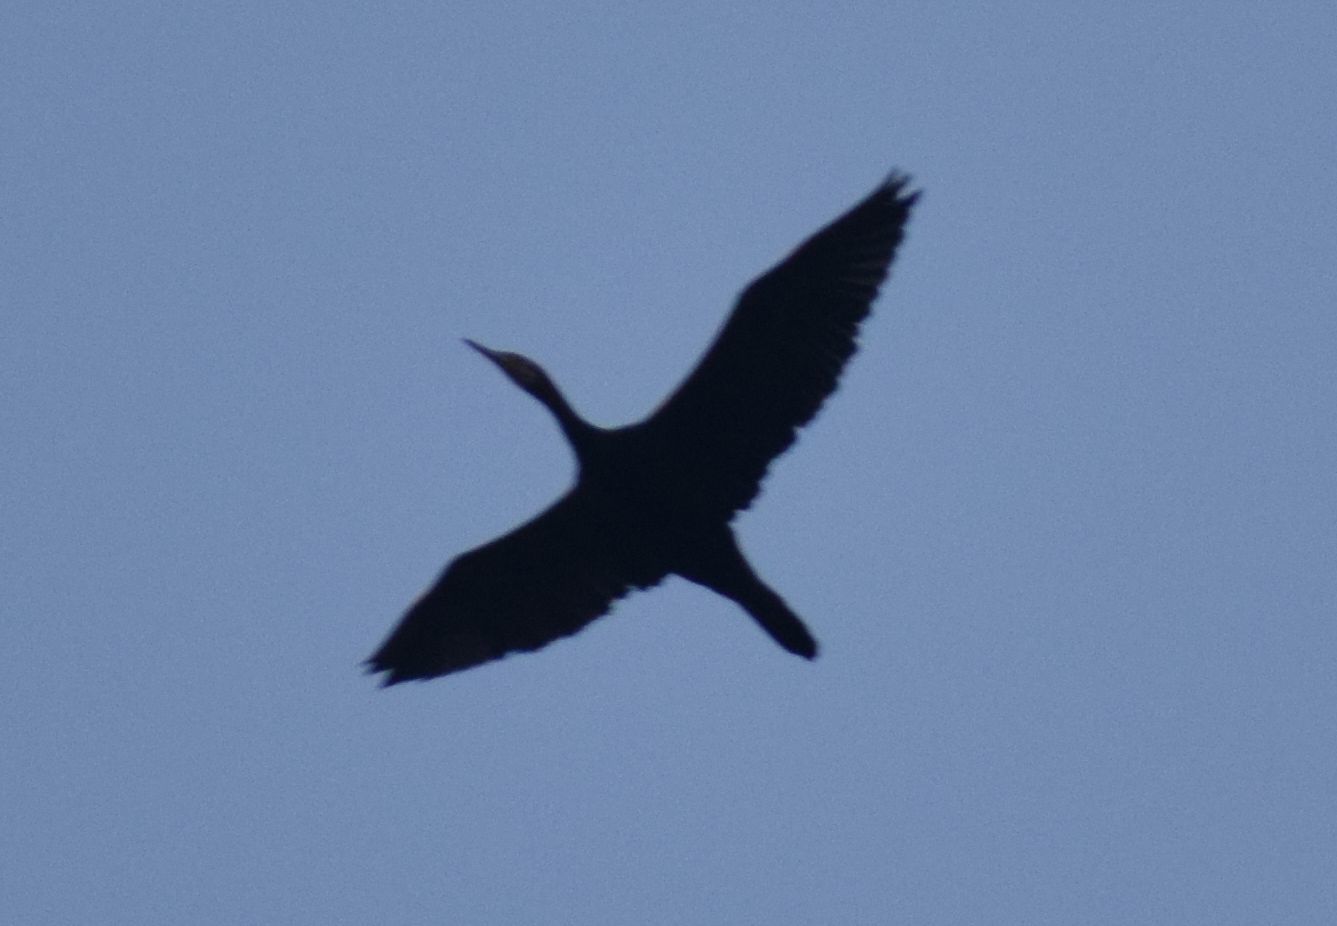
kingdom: Animalia
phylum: Chordata
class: Aves
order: Suliformes
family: Phalacrocoracidae
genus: Phalacrocorax
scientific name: Phalacrocorax carbo
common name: Great cormorant
